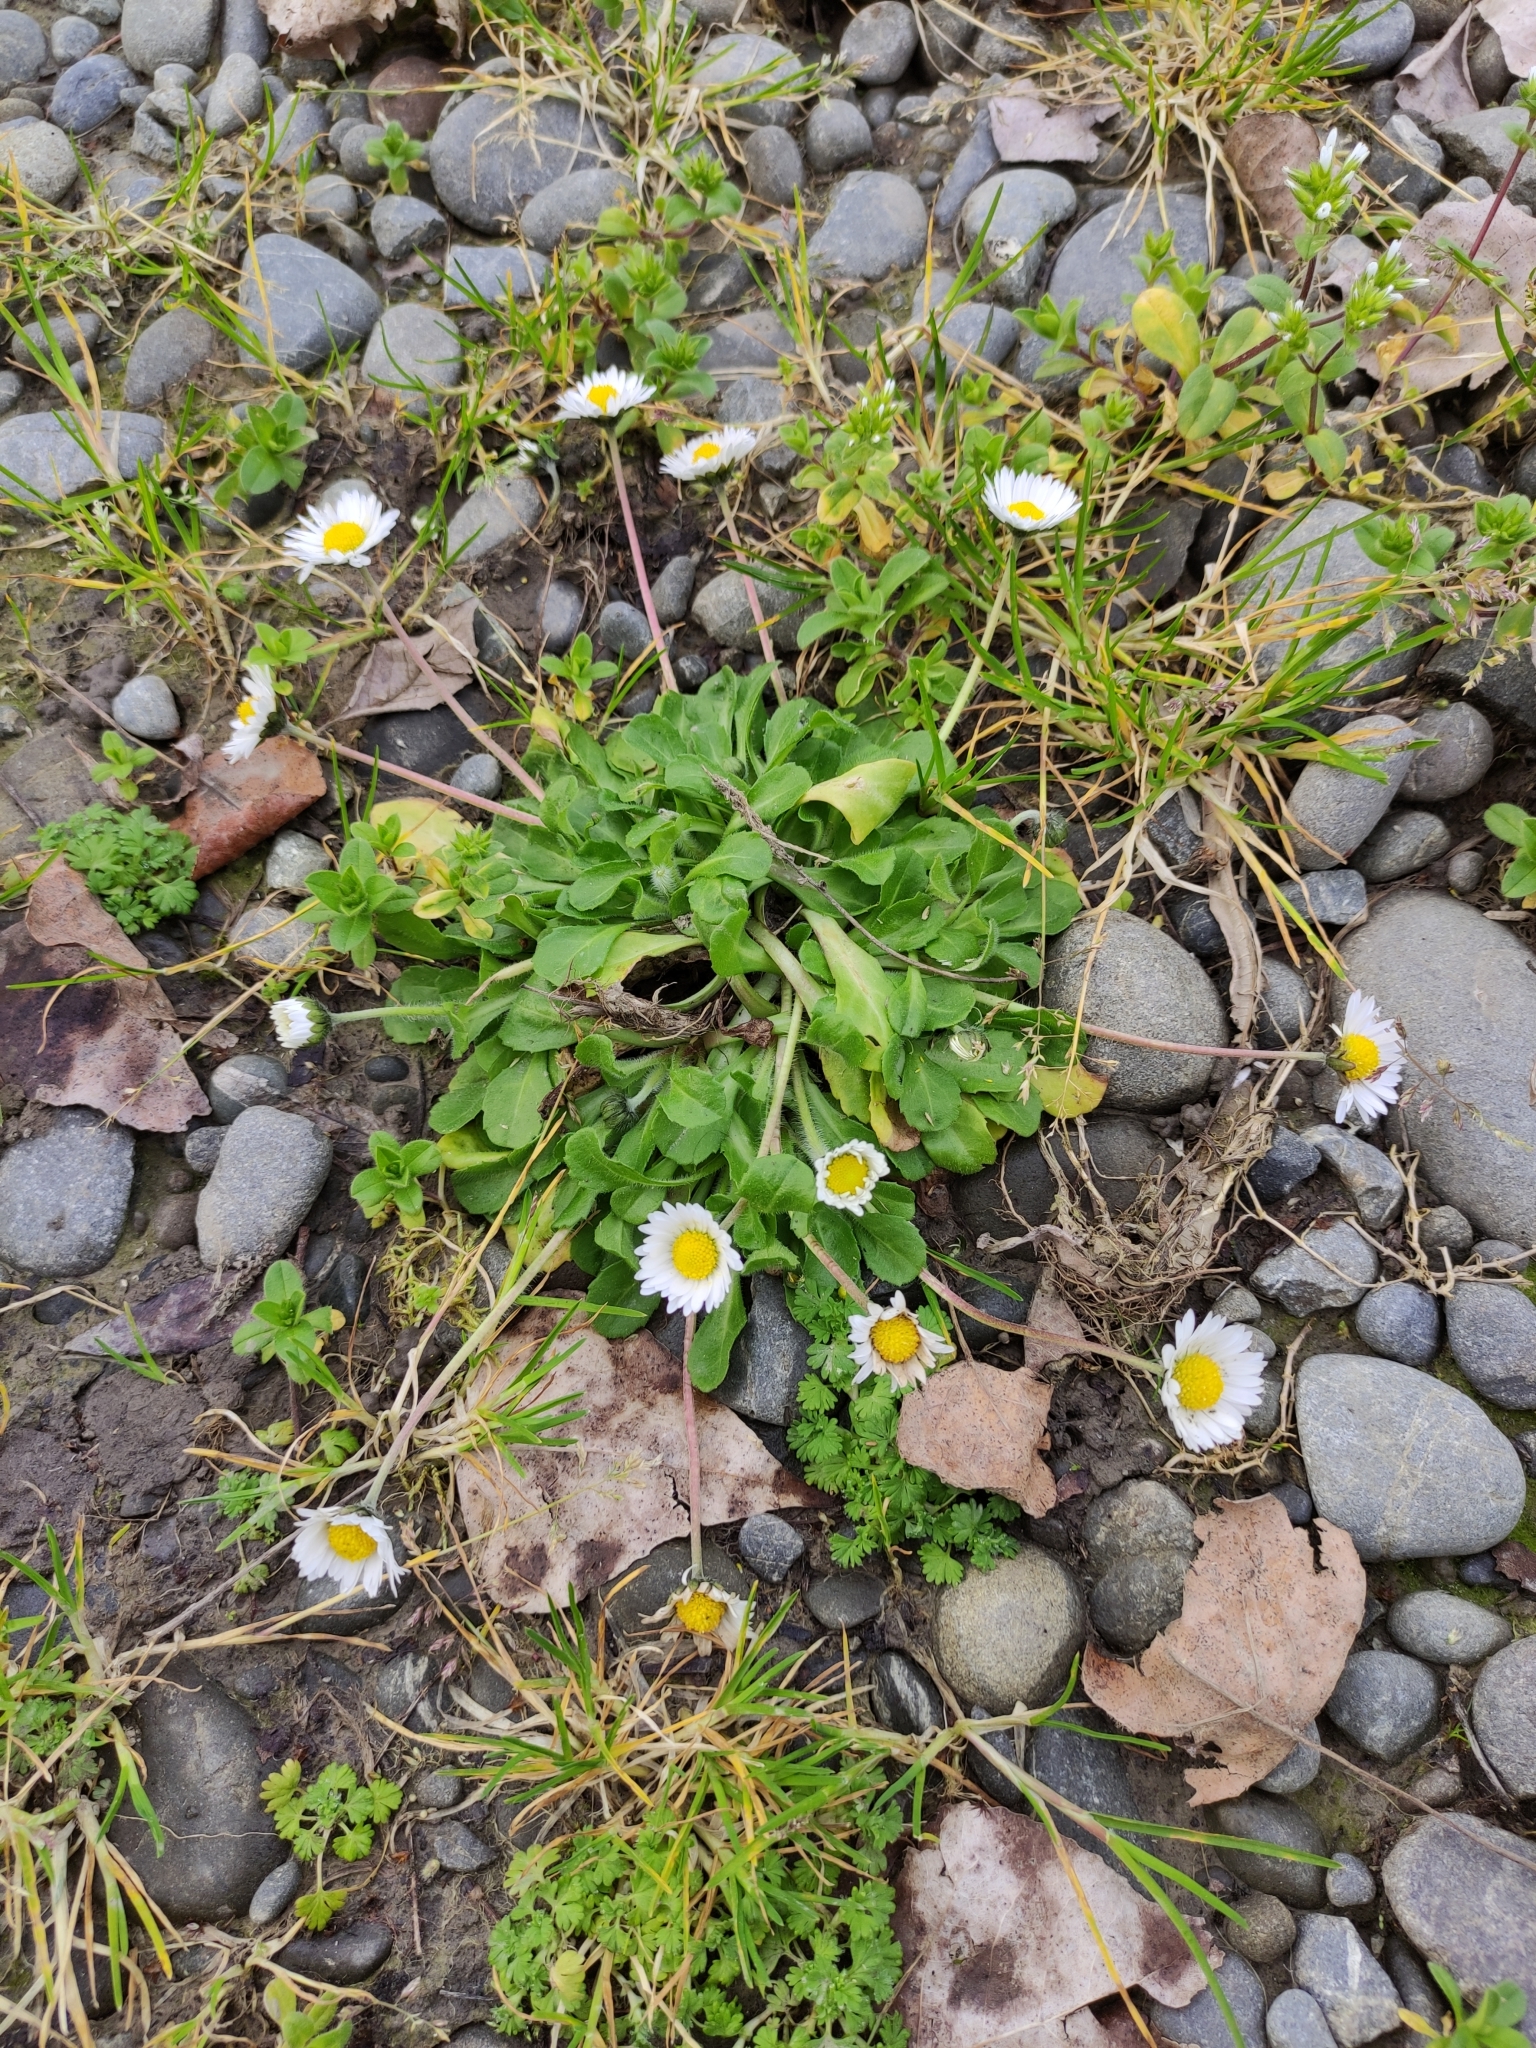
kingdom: Plantae
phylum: Tracheophyta
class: Magnoliopsida
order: Asterales
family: Asteraceae
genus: Bellis
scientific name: Bellis perennis
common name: Lawndaisy
